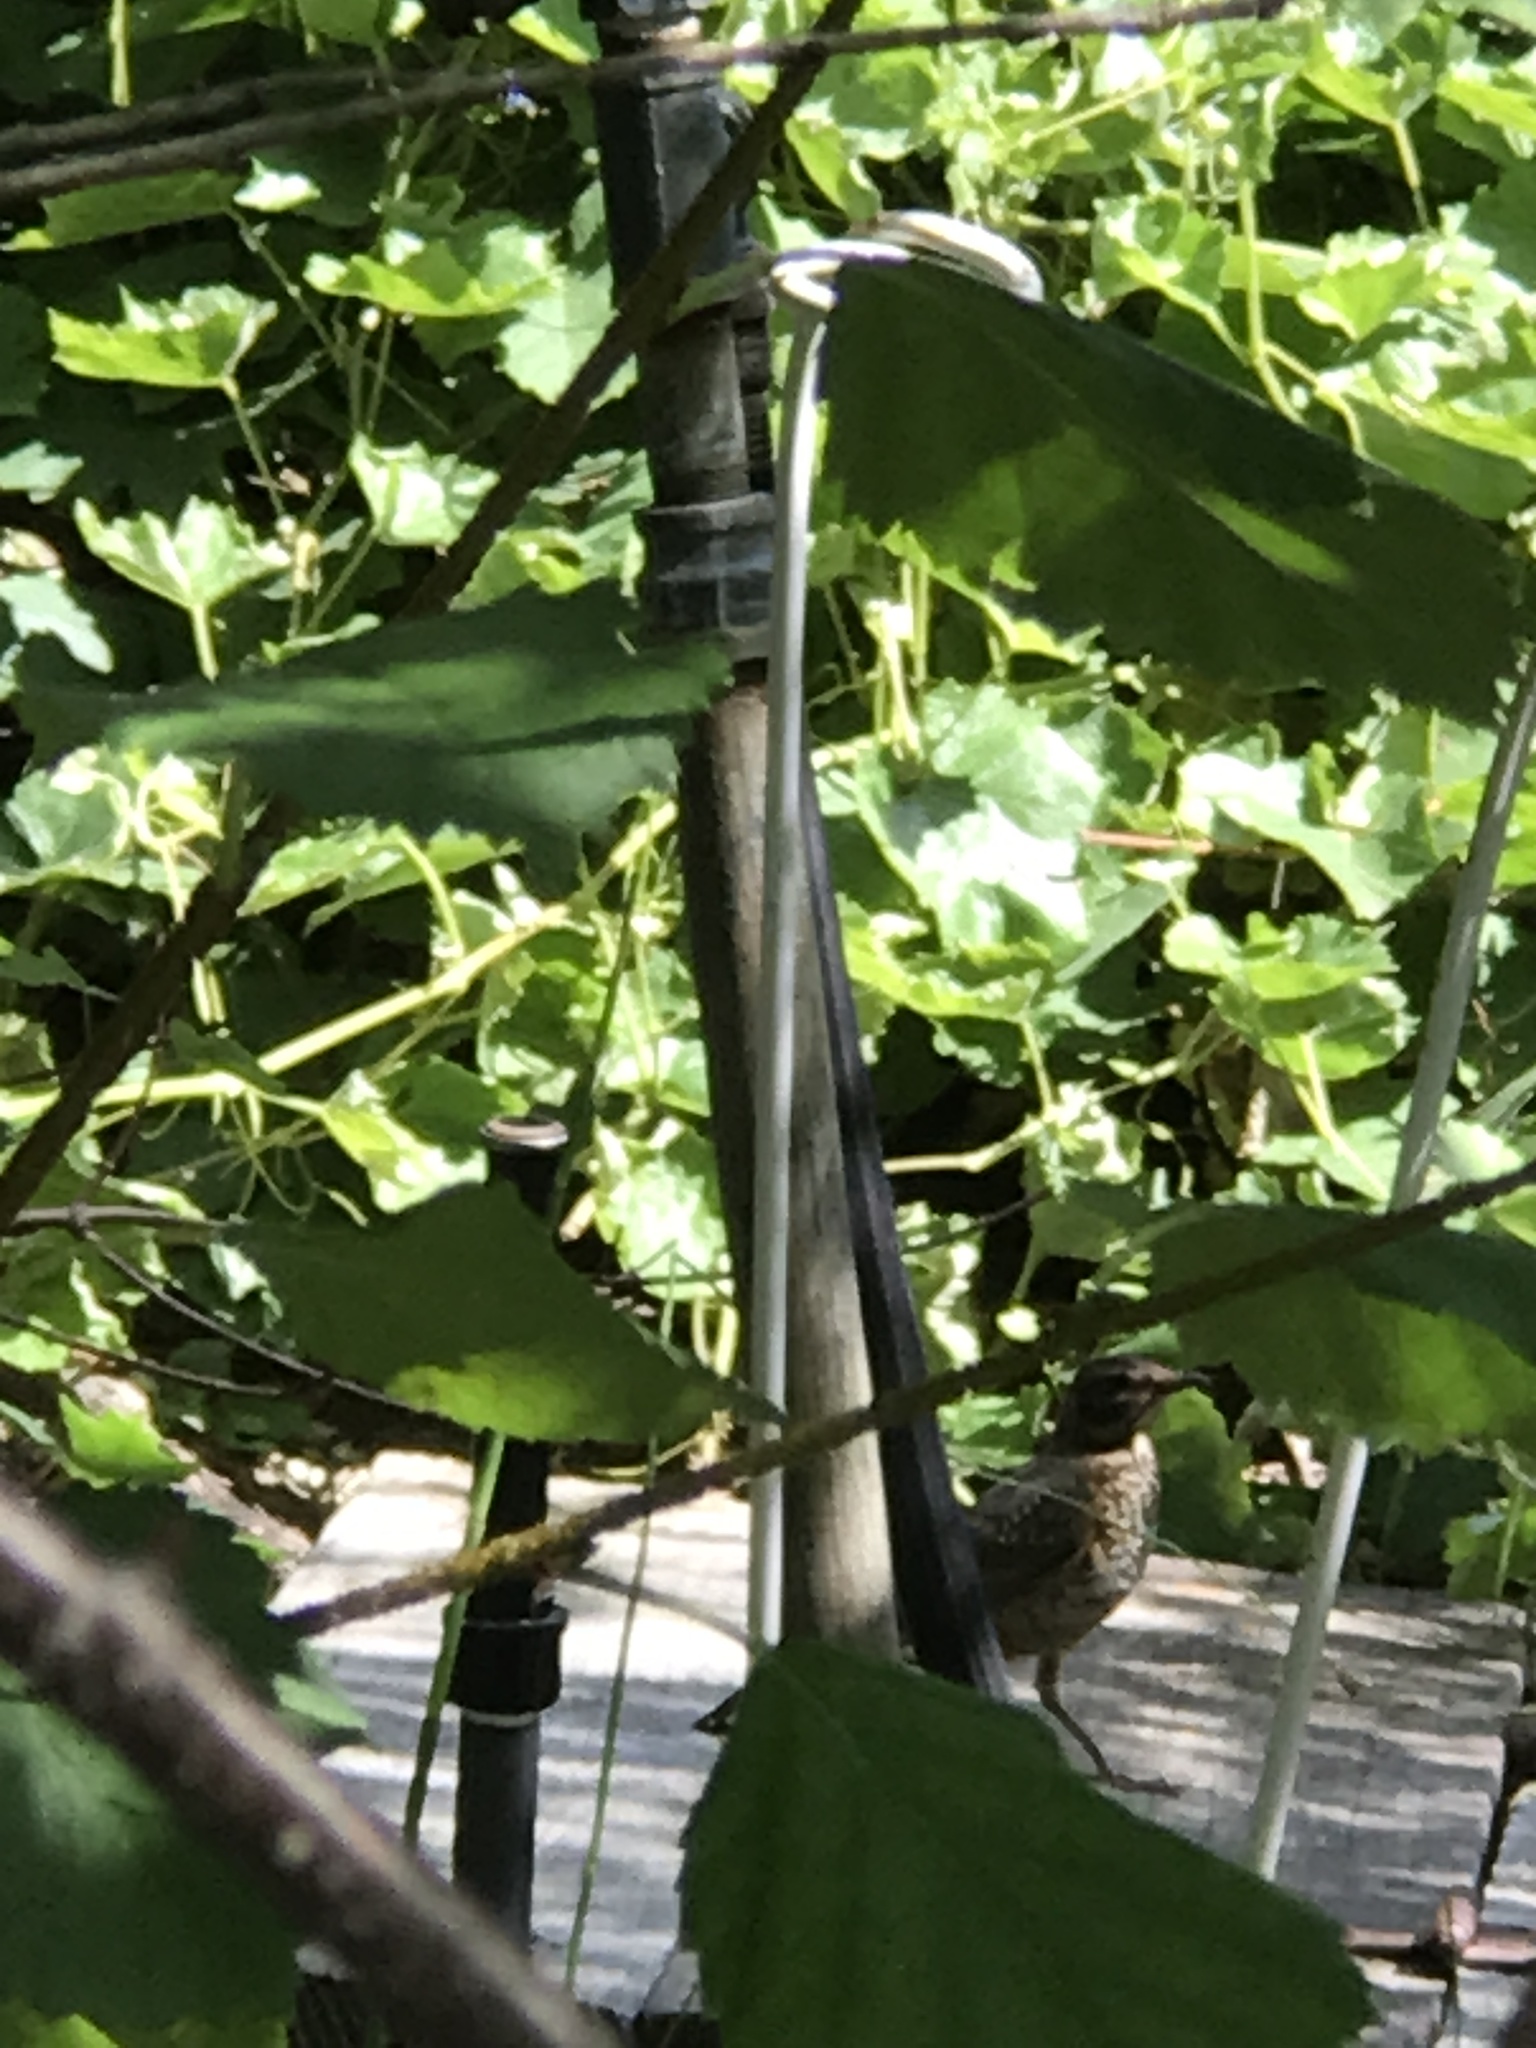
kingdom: Animalia
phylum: Chordata
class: Aves
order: Passeriformes
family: Turdidae
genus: Turdus
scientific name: Turdus migratorius
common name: American robin
